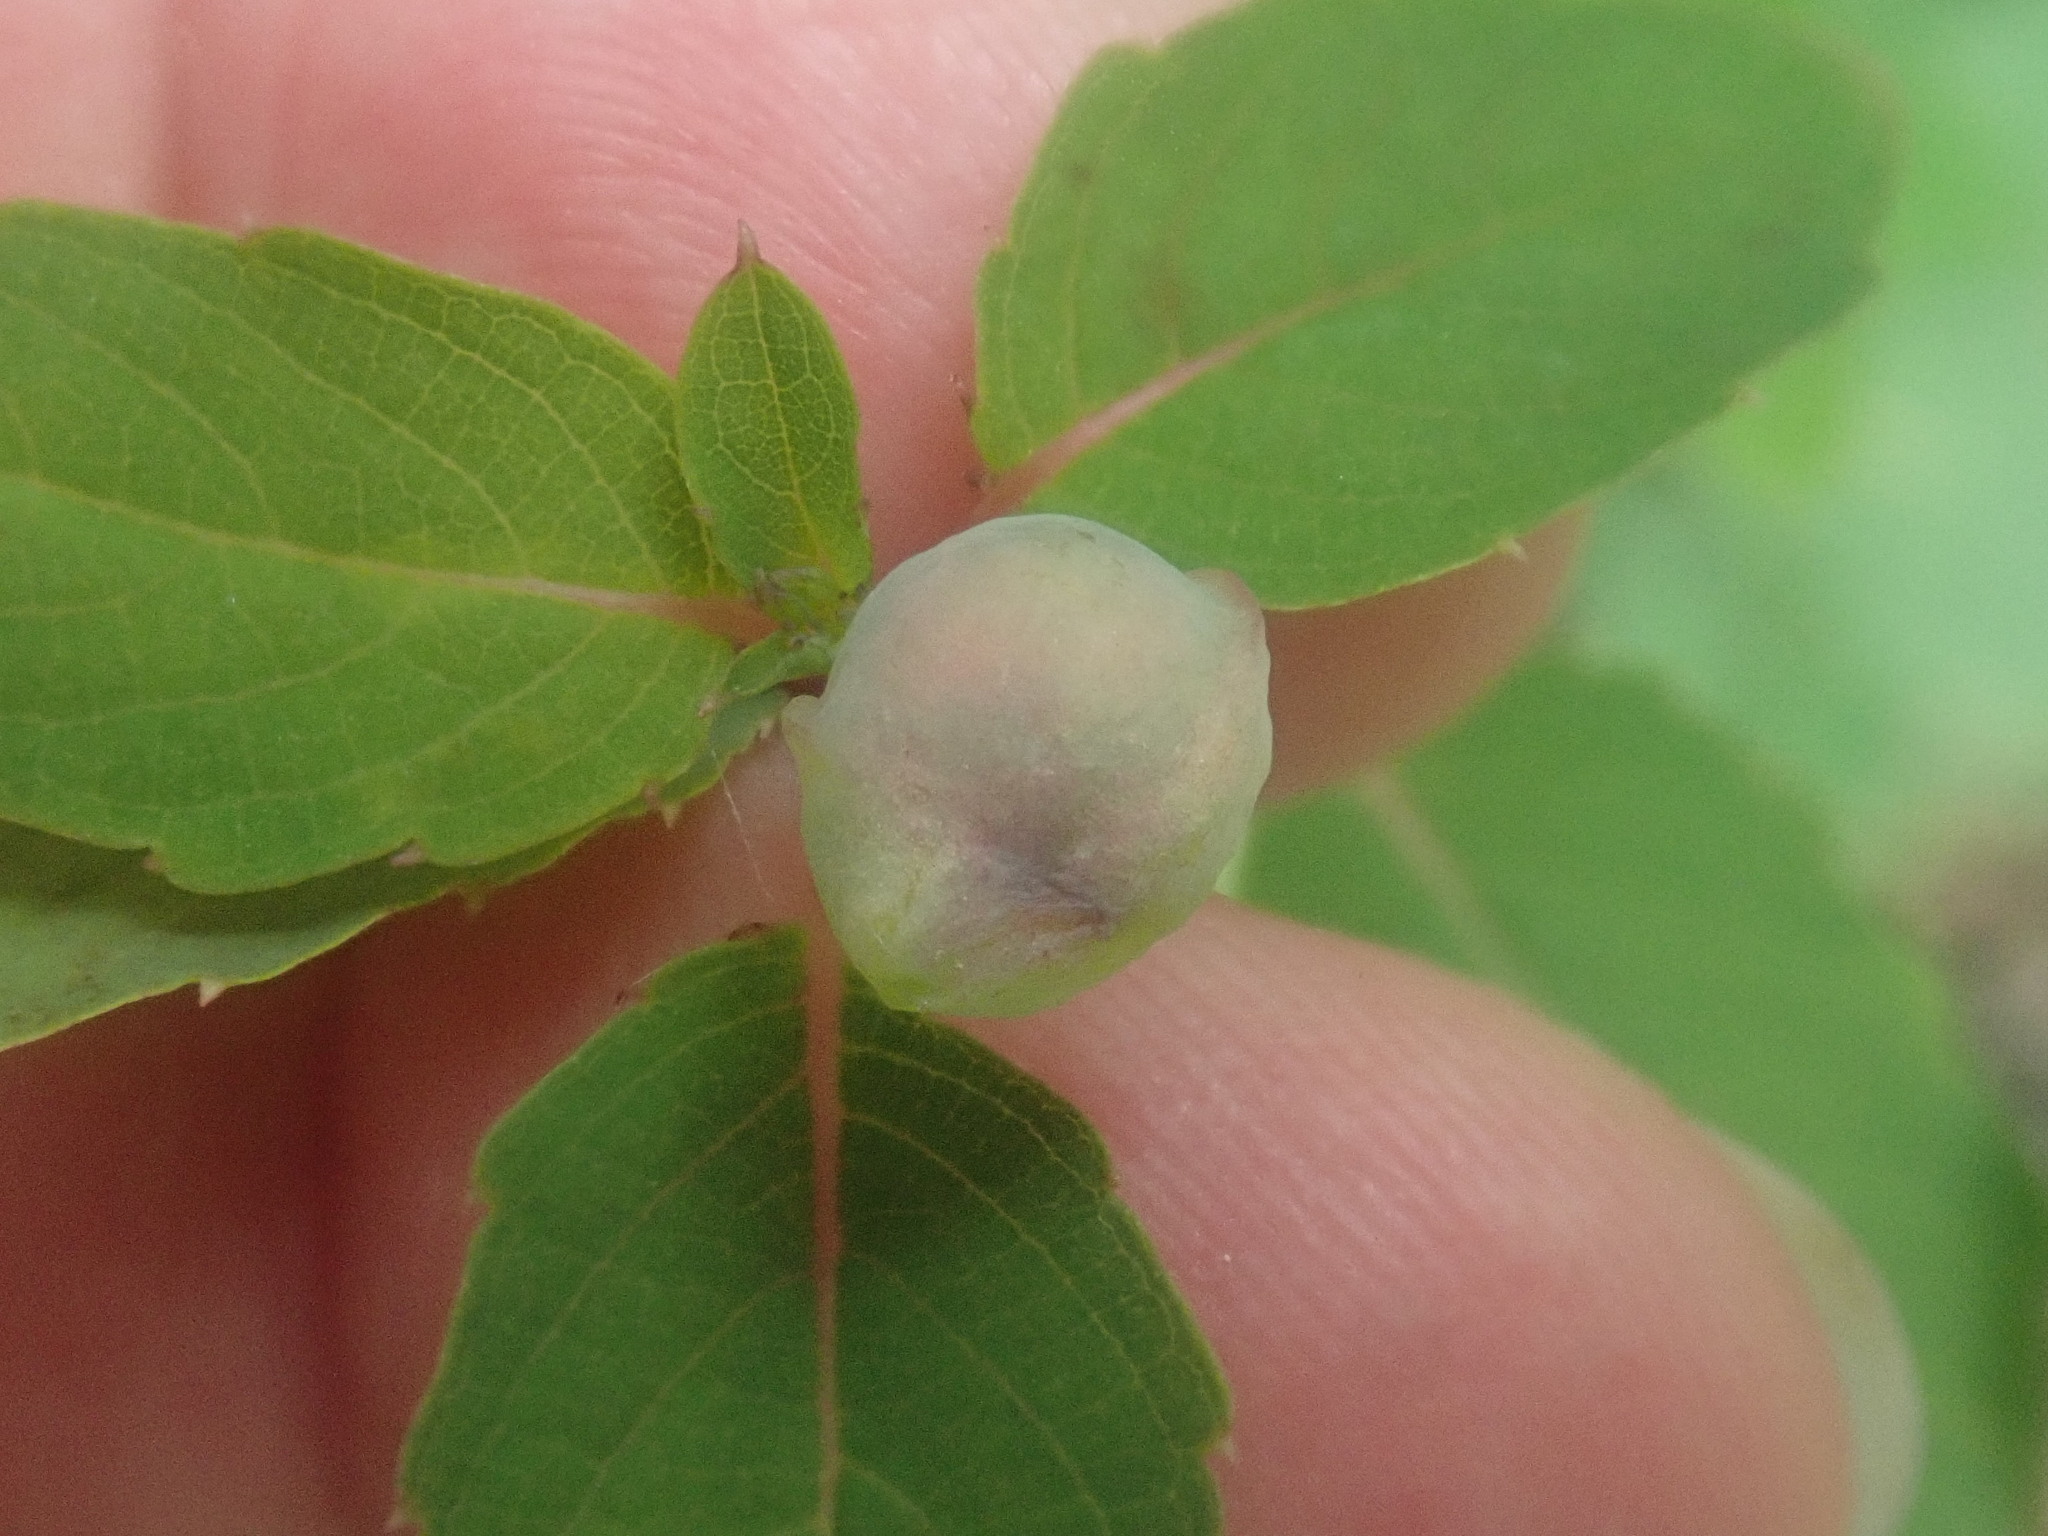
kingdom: Animalia
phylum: Arthropoda
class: Insecta
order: Diptera
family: Cecidomyiidae
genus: Schizomyia
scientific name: Schizomyia impatientis
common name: Jewelweed gall midge
